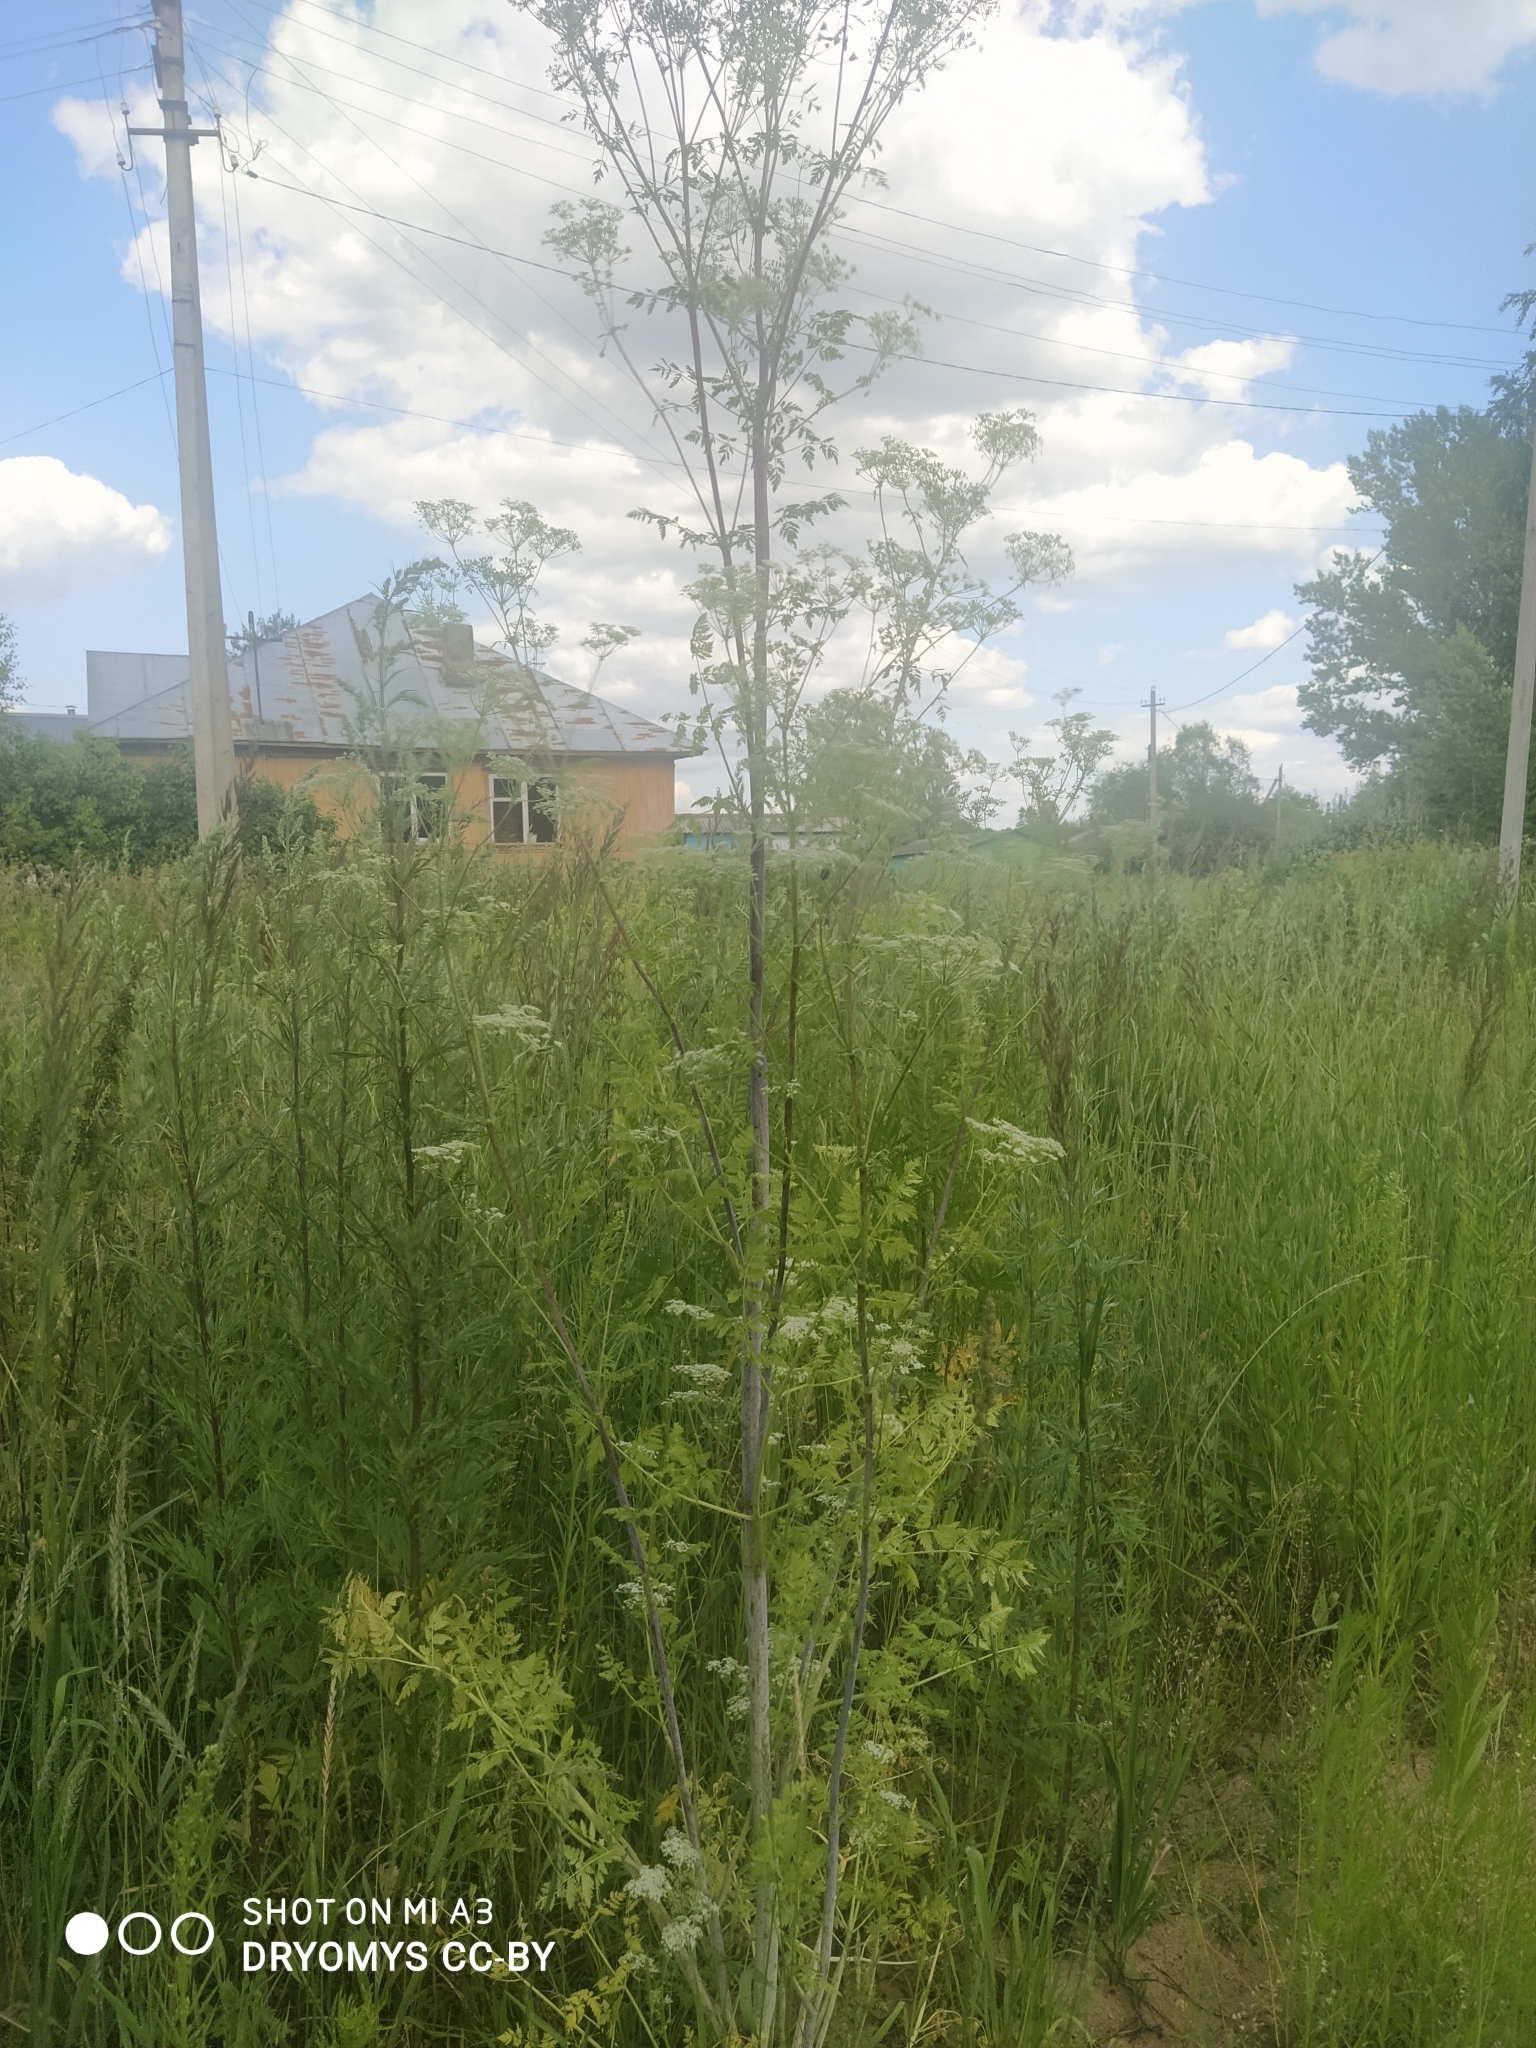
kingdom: Plantae
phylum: Tracheophyta
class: Magnoliopsida
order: Apiales
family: Apiaceae
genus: Conium
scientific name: Conium maculatum
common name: Hemlock
